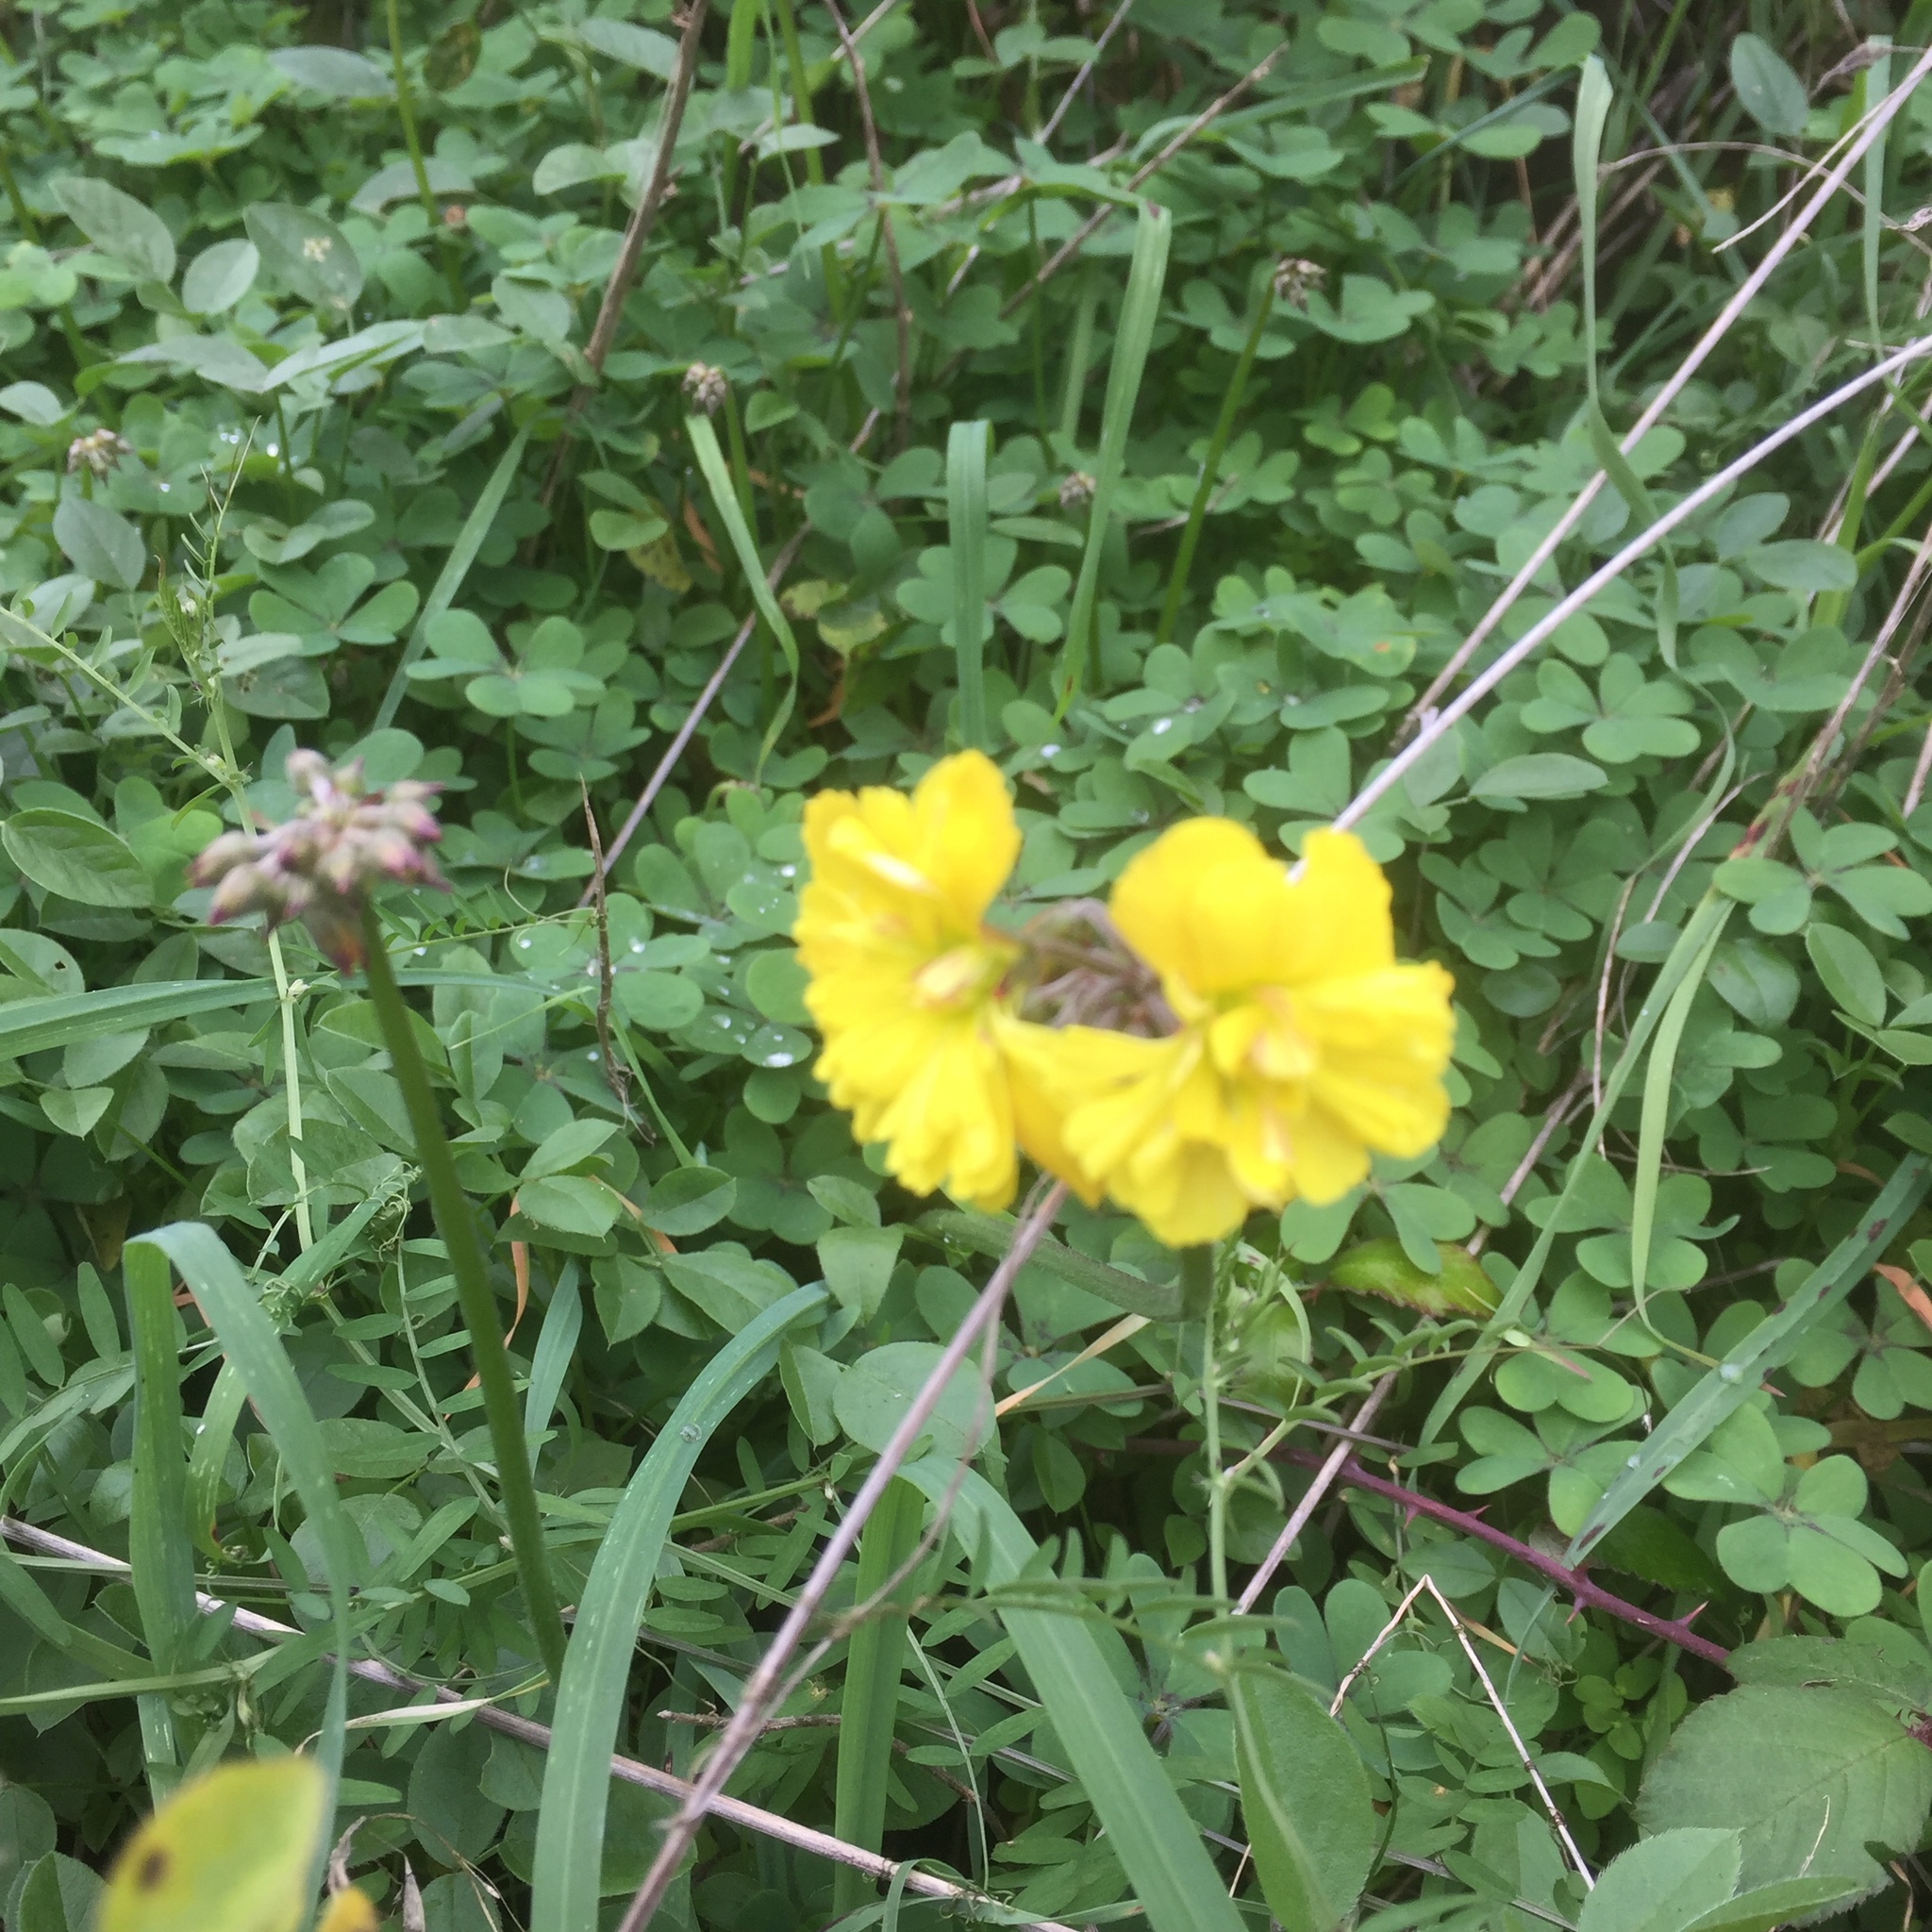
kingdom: Plantae
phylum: Tracheophyta
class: Magnoliopsida
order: Oxalidales
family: Oxalidaceae
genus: Oxalis
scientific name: Oxalis pes-caprae
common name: Bermuda-buttercup
